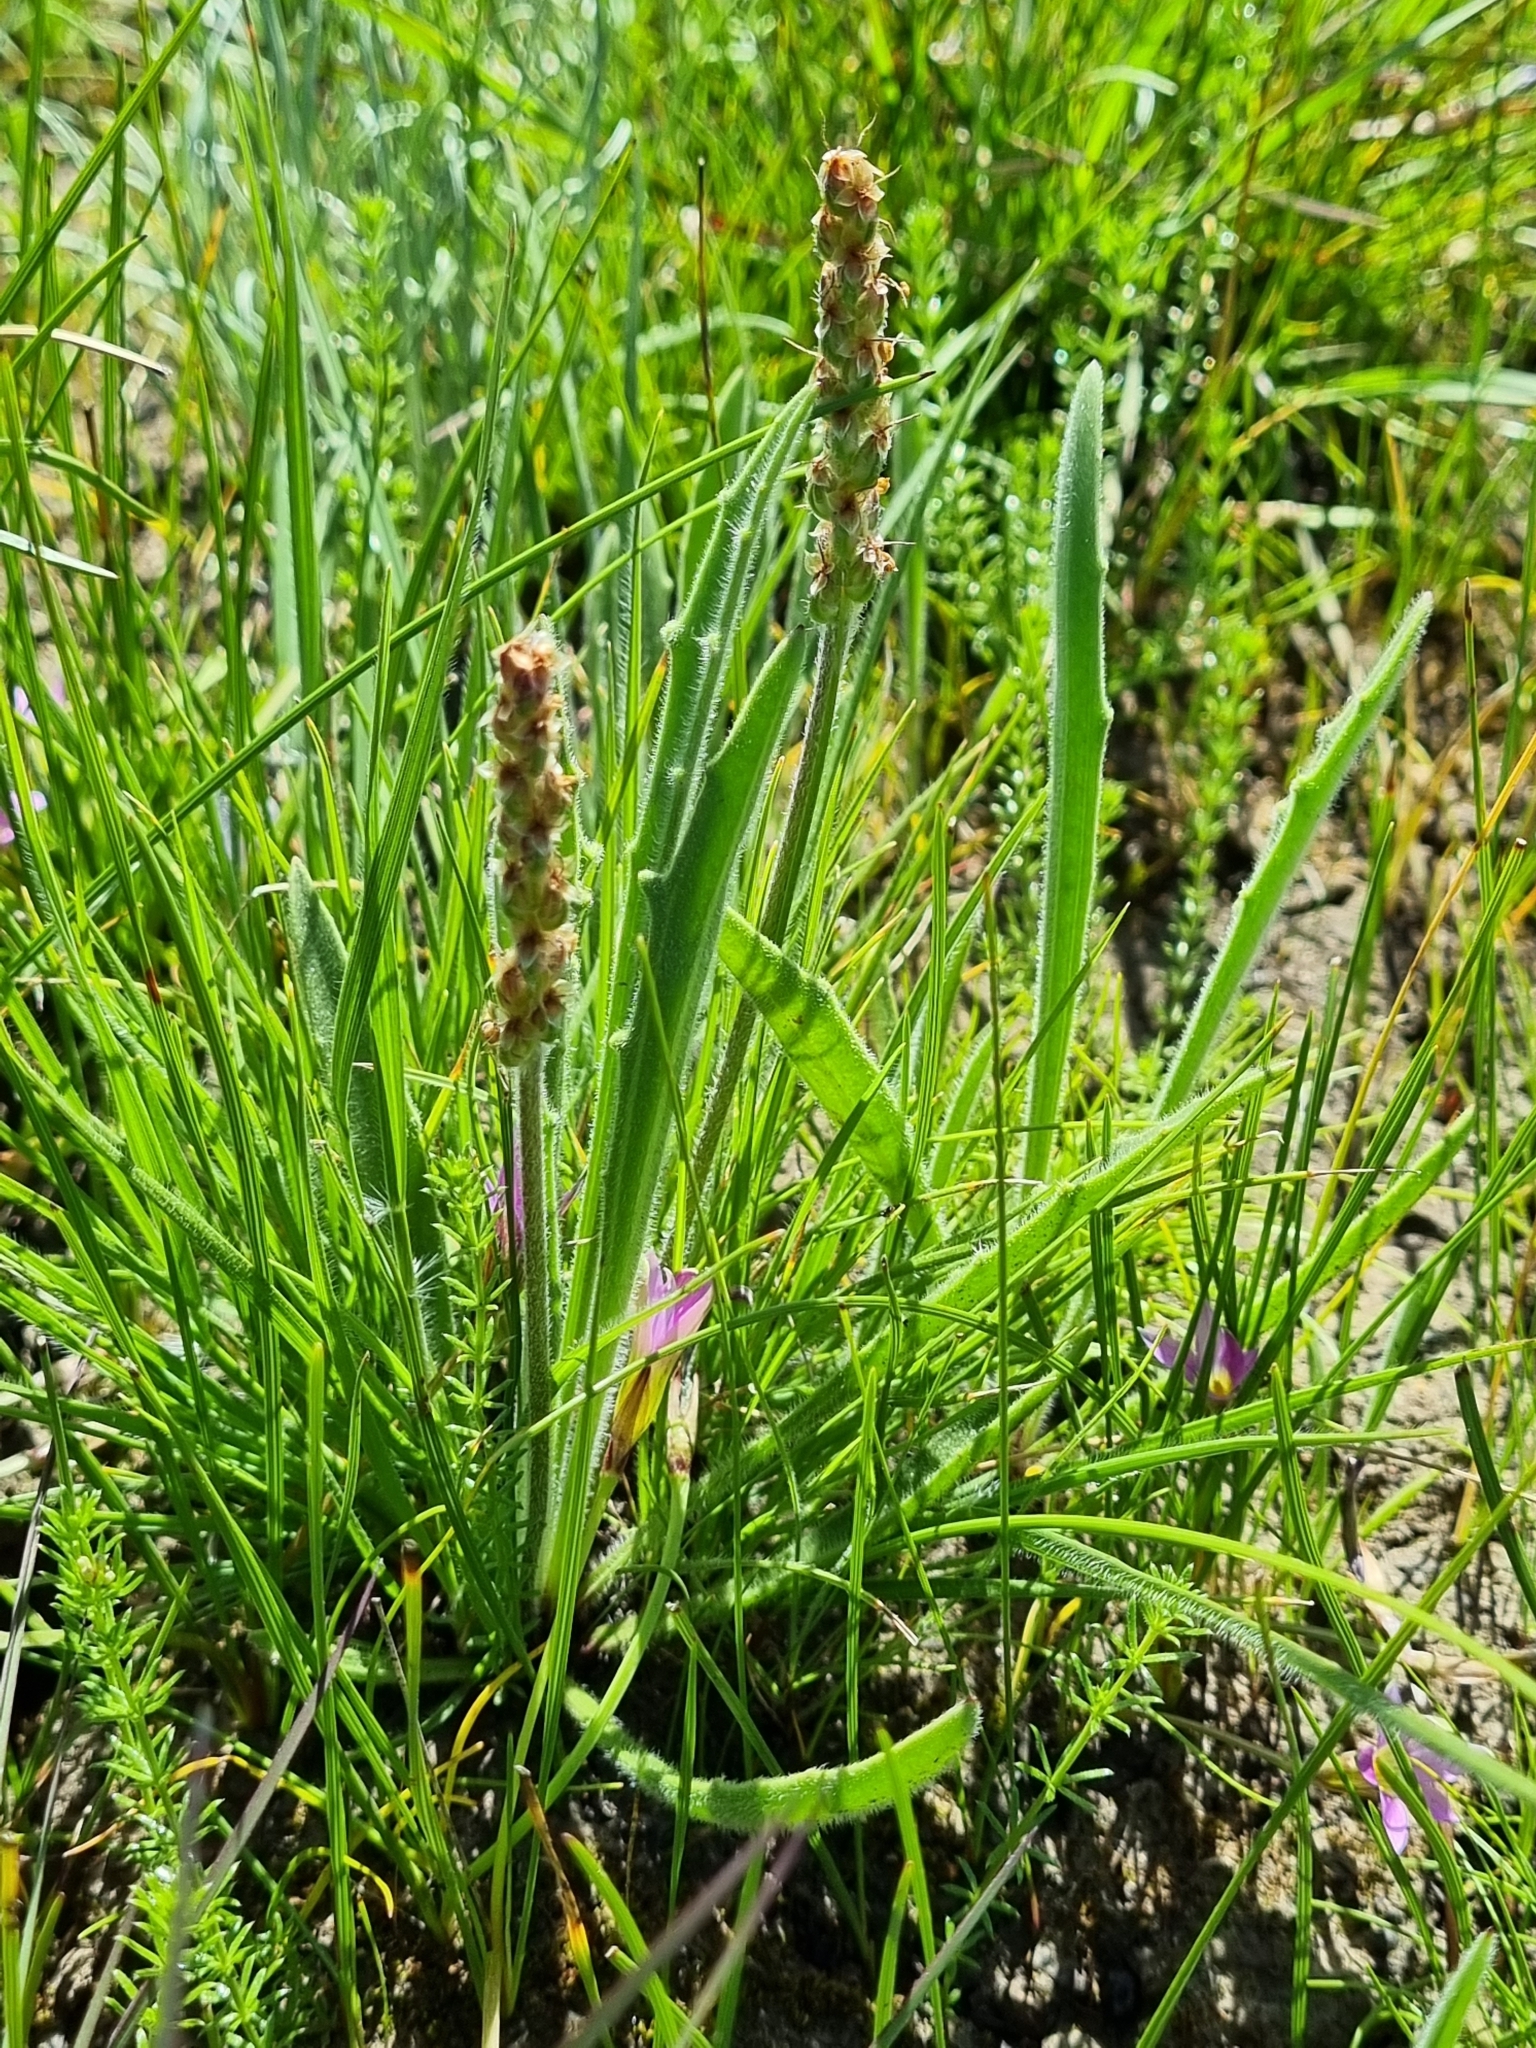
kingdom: Plantae
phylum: Tracheophyta
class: Magnoliopsida
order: Lamiales
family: Plantaginaceae
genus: Plantago
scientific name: Plantago gaudichaudii
